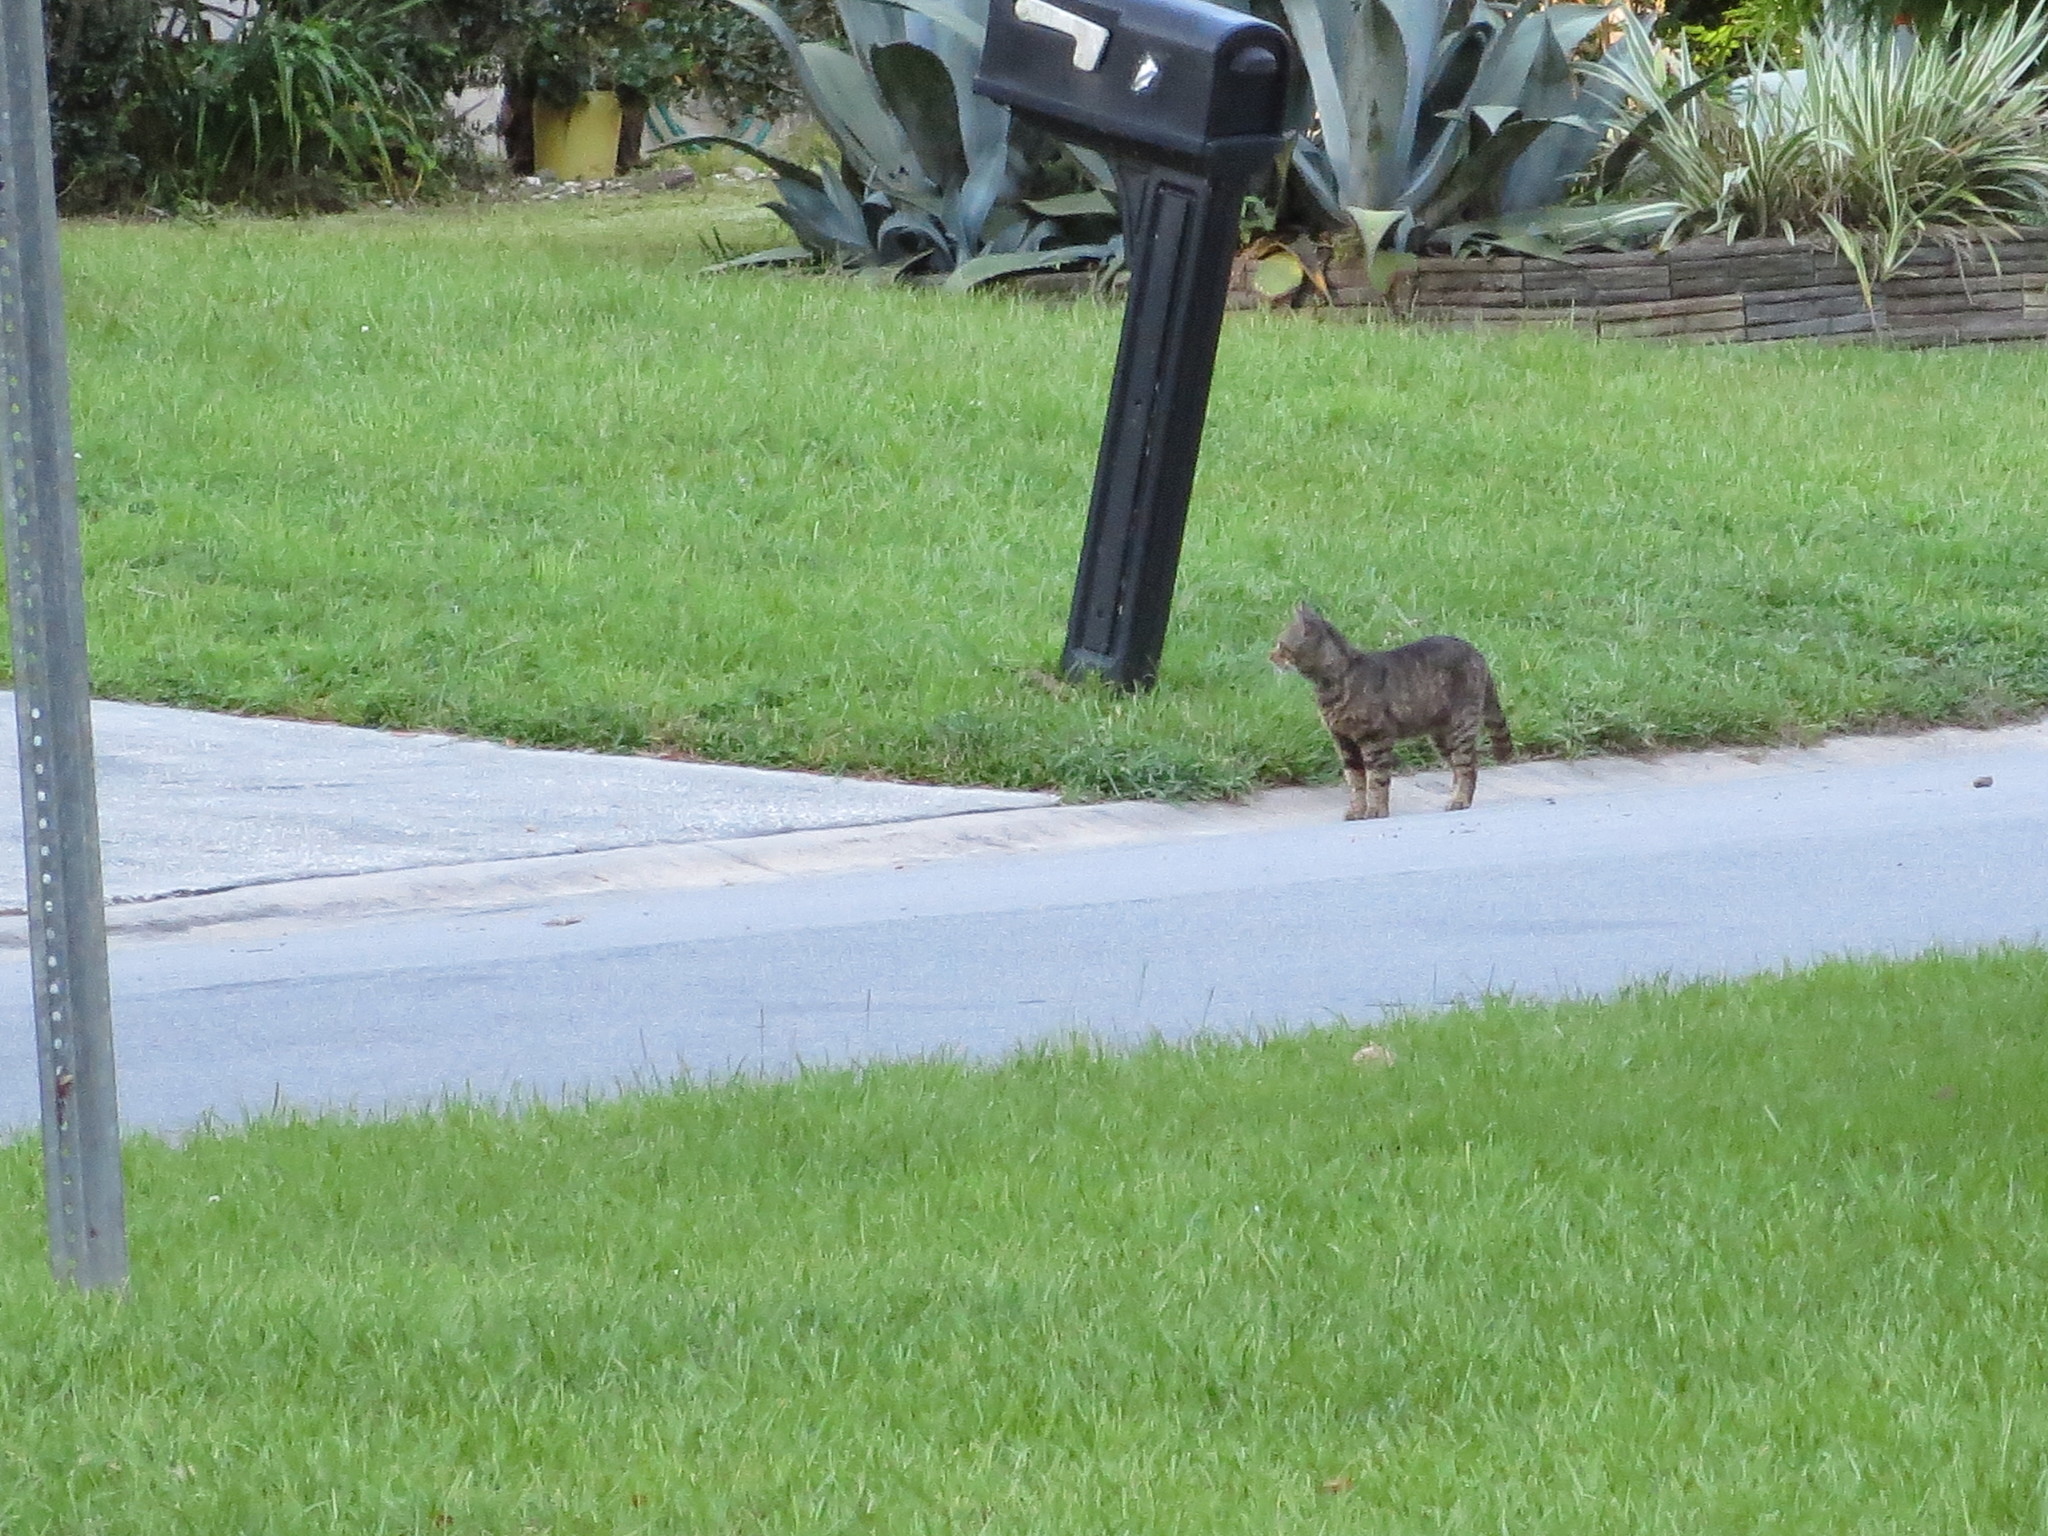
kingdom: Animalia
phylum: Chordata
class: Mammalia
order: Carnivora
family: Felidae
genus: Felis
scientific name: Felis catus
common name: Domestic cat
